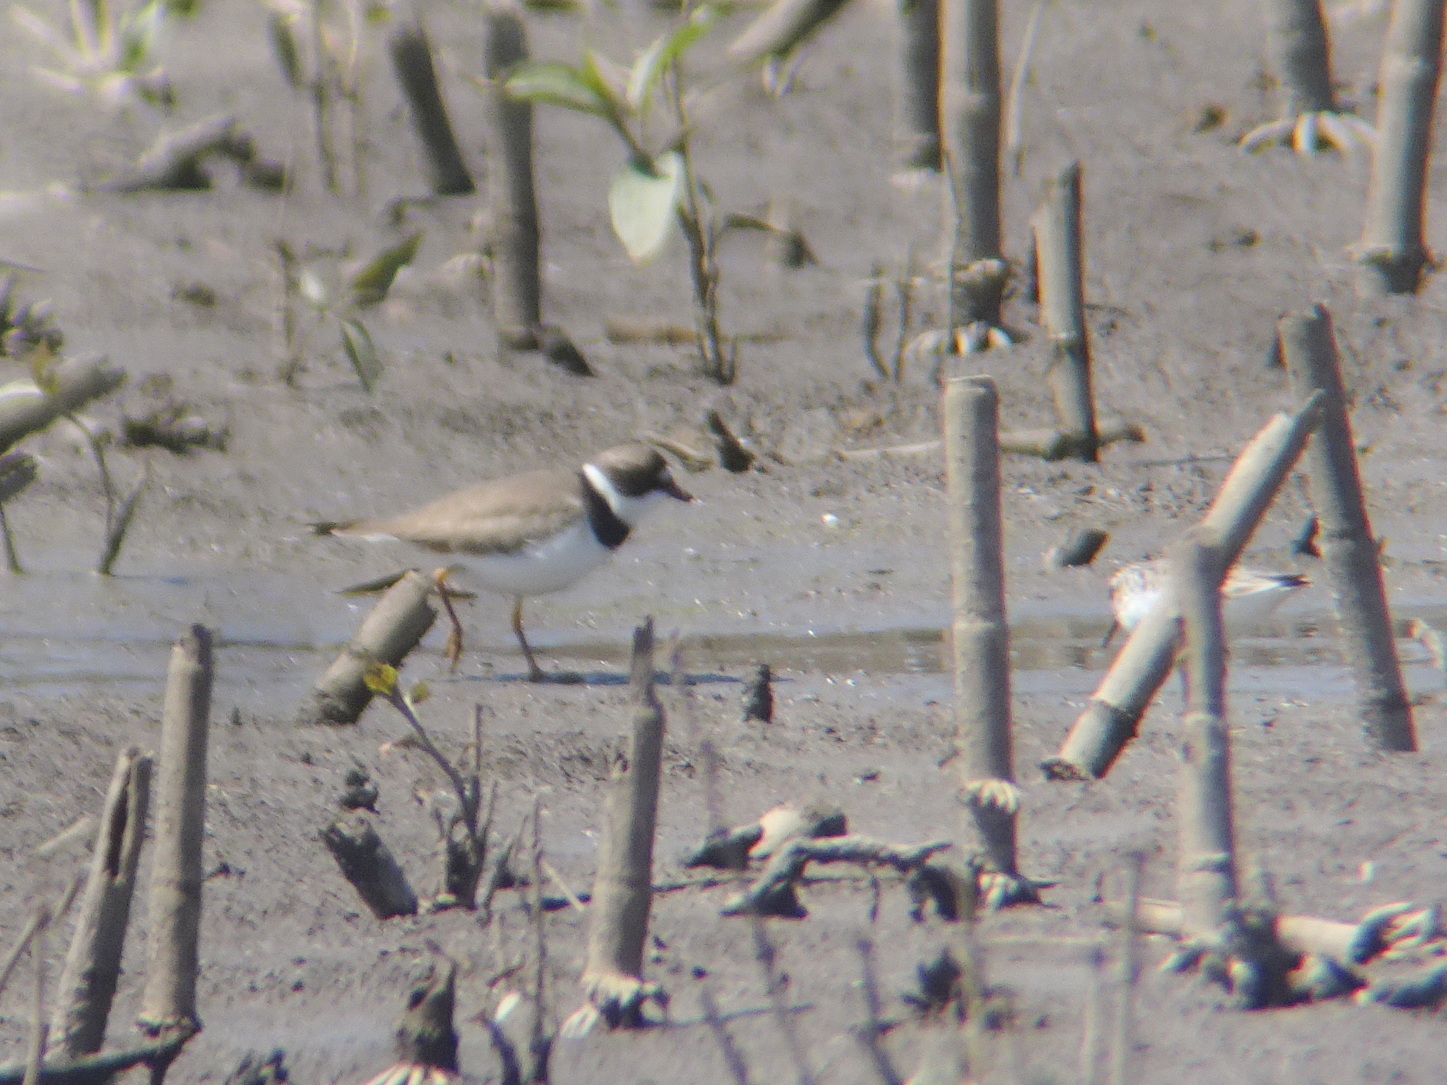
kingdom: Animalia
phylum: Chordata
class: Aves
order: Charadriiformes
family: Charadriidae
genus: Charadrius
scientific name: Charadrius semipalmatus
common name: Semipalmated plover
